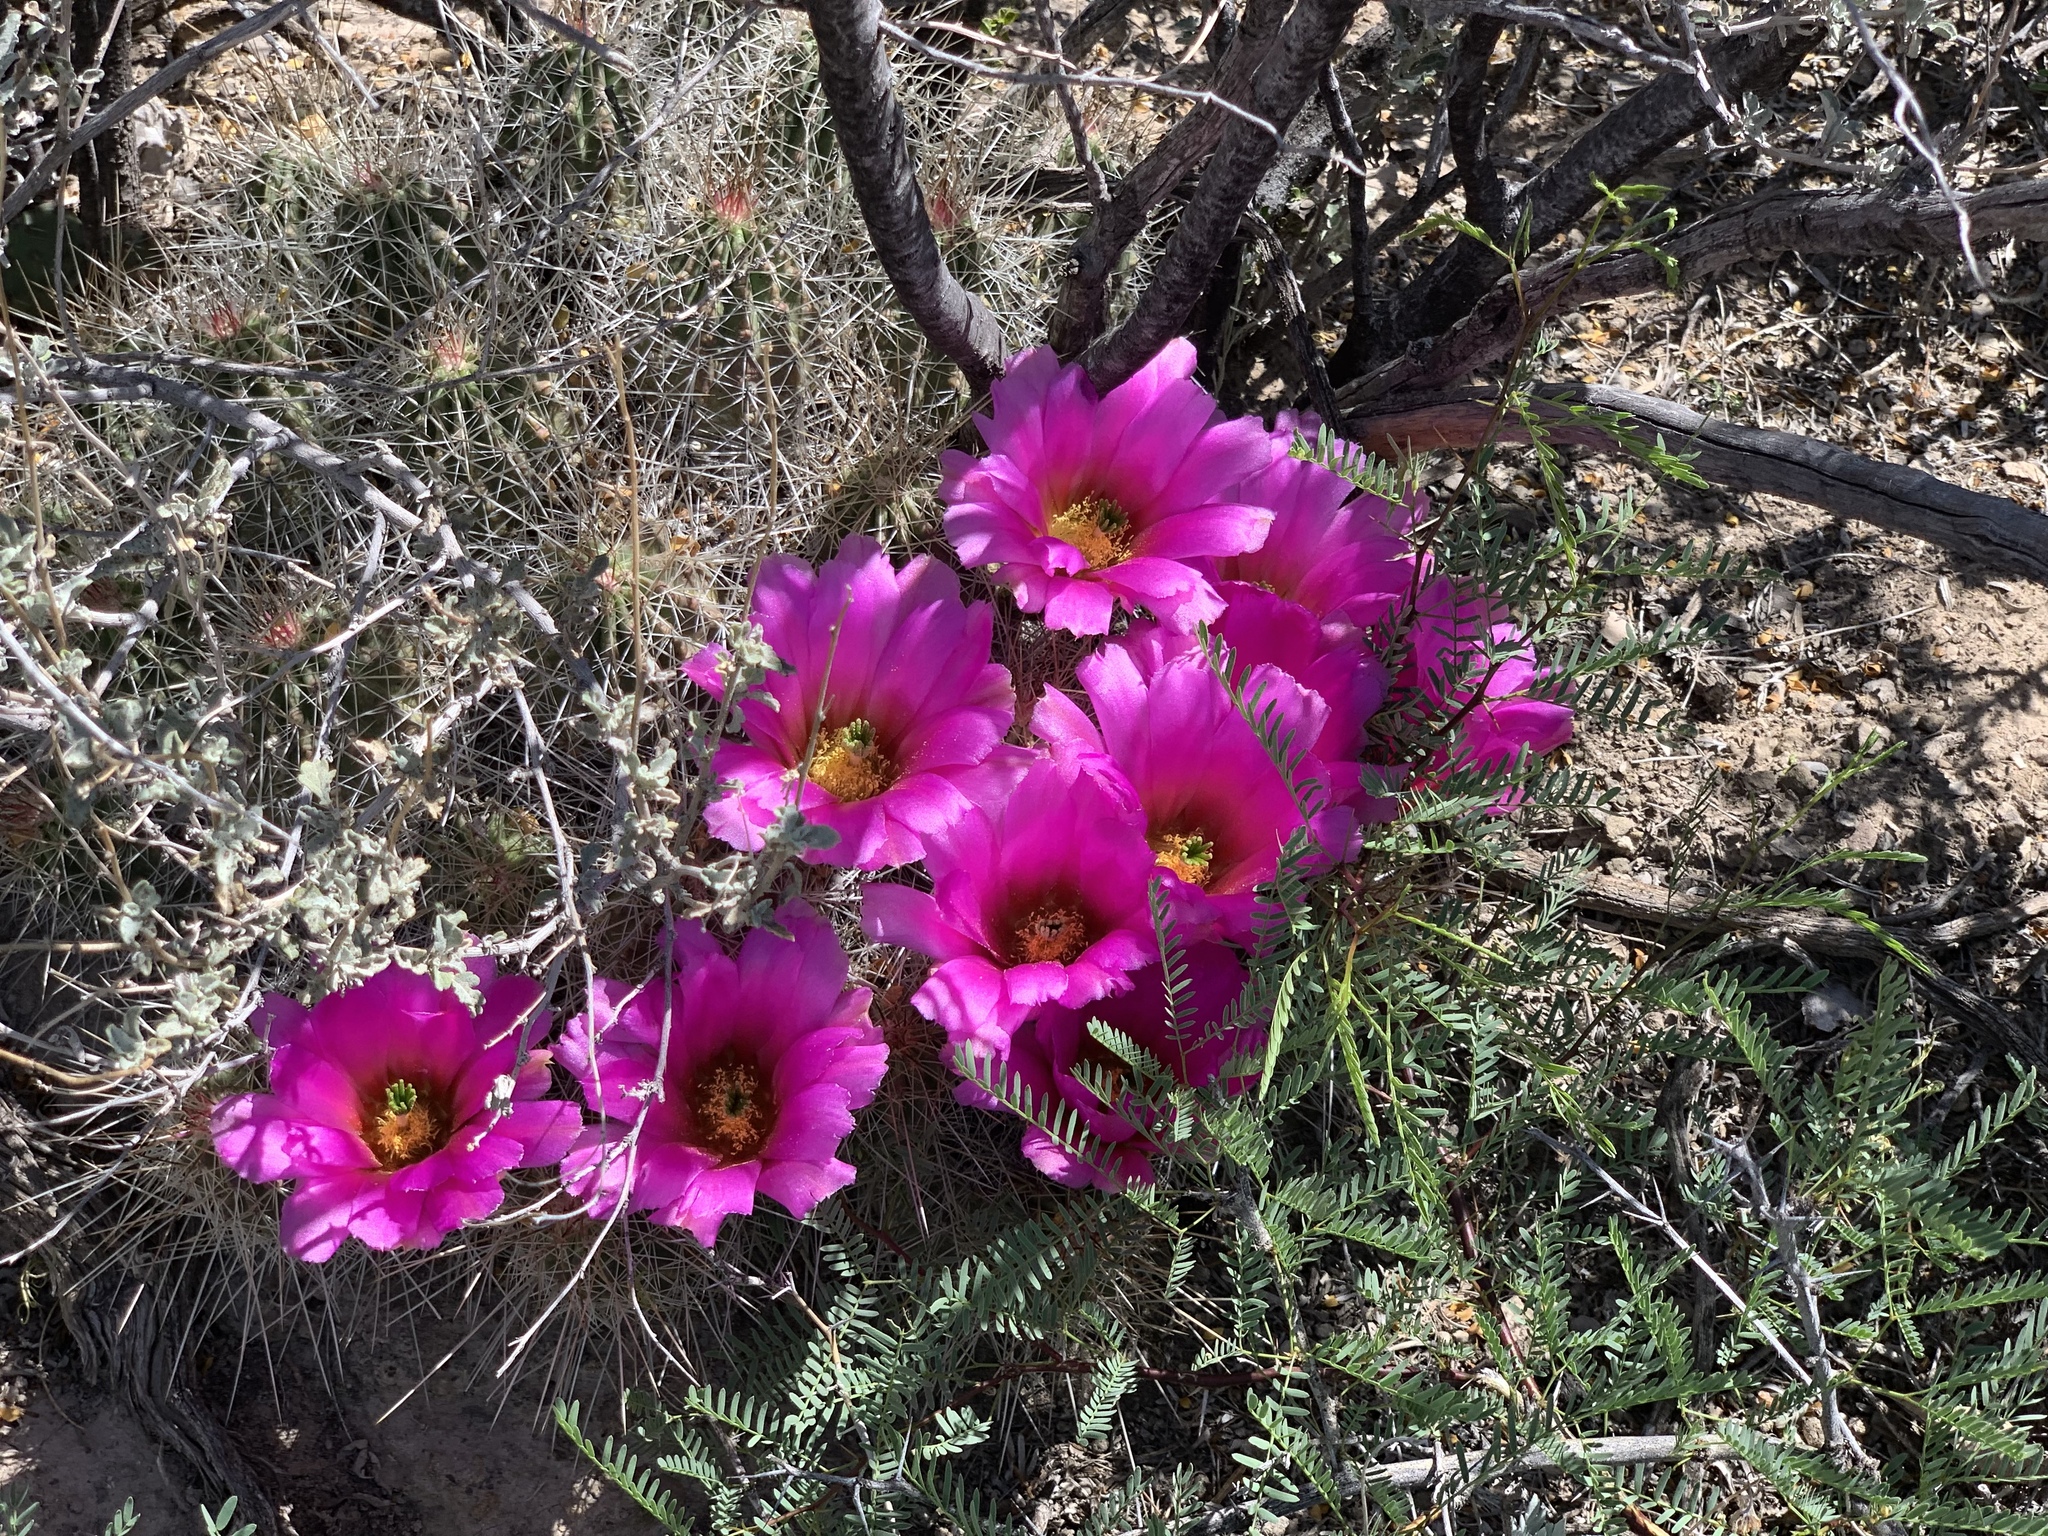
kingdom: Plantae
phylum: Tracheophyta
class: Magnoliopsida
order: Caryophyllales
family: Cactaceae
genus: Echinocereus
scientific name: Echinocereus stramineus
